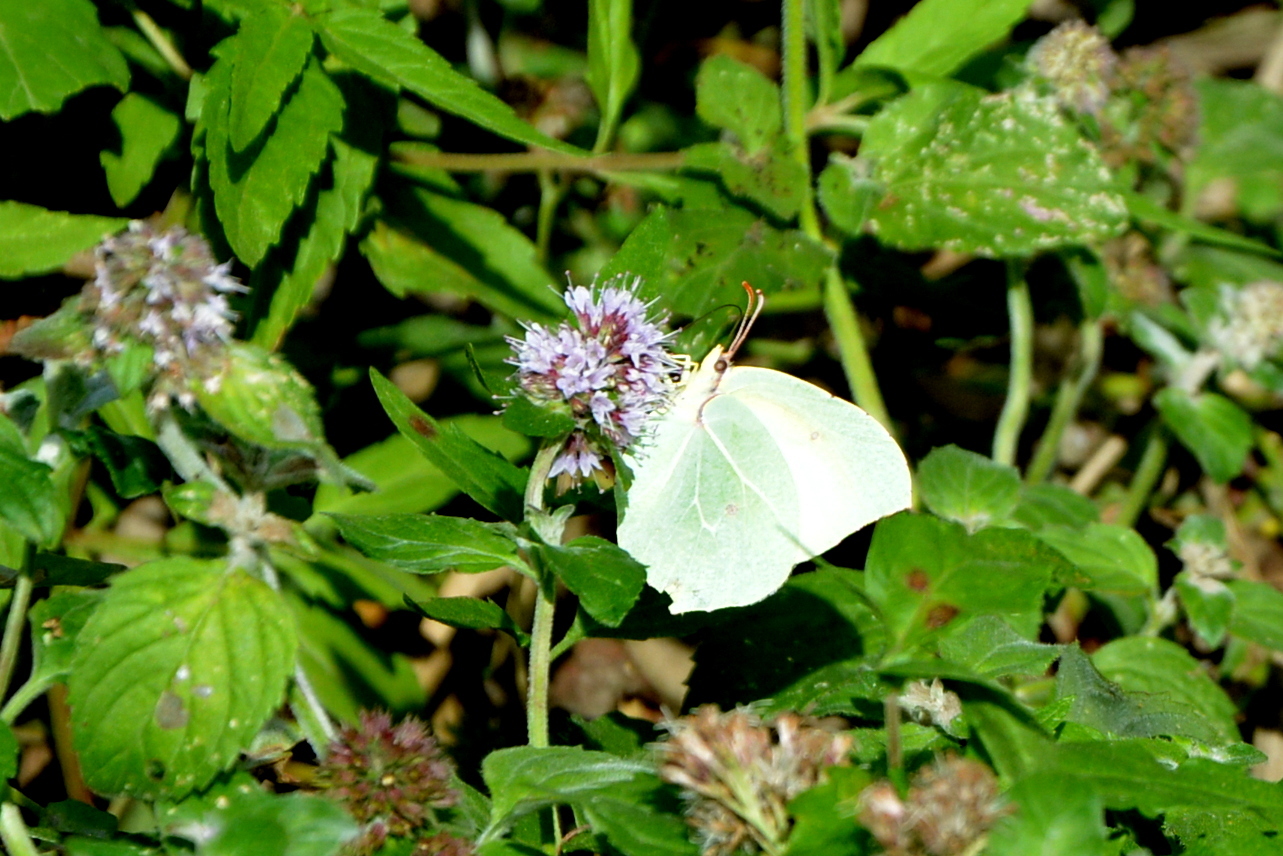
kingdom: Animalia
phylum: Arthropoda
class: Insecta
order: Lepidoptera
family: Pieridae
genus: Gonepteryx
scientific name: Gonepteryx cleopatra
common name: Cleopatra
